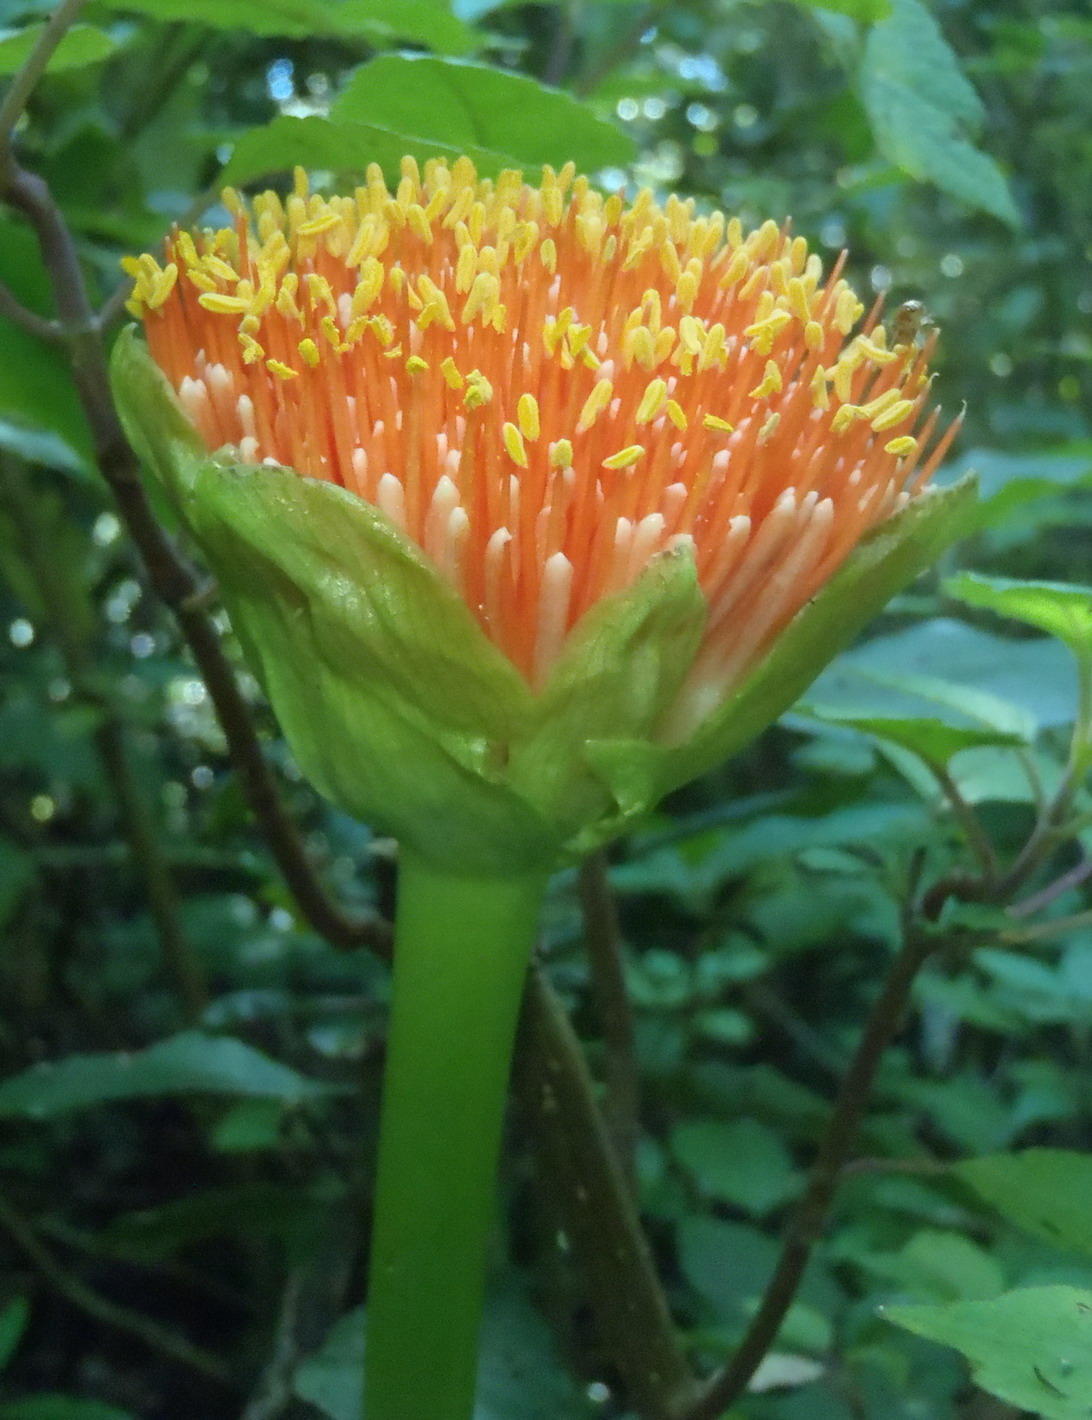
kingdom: Plantae
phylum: Tracheophyta
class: Liliopsida
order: Asparagales
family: Amaryllidaceae
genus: Scadoxus
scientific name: Scadoxus puniceus
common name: Royal-paintbrush
